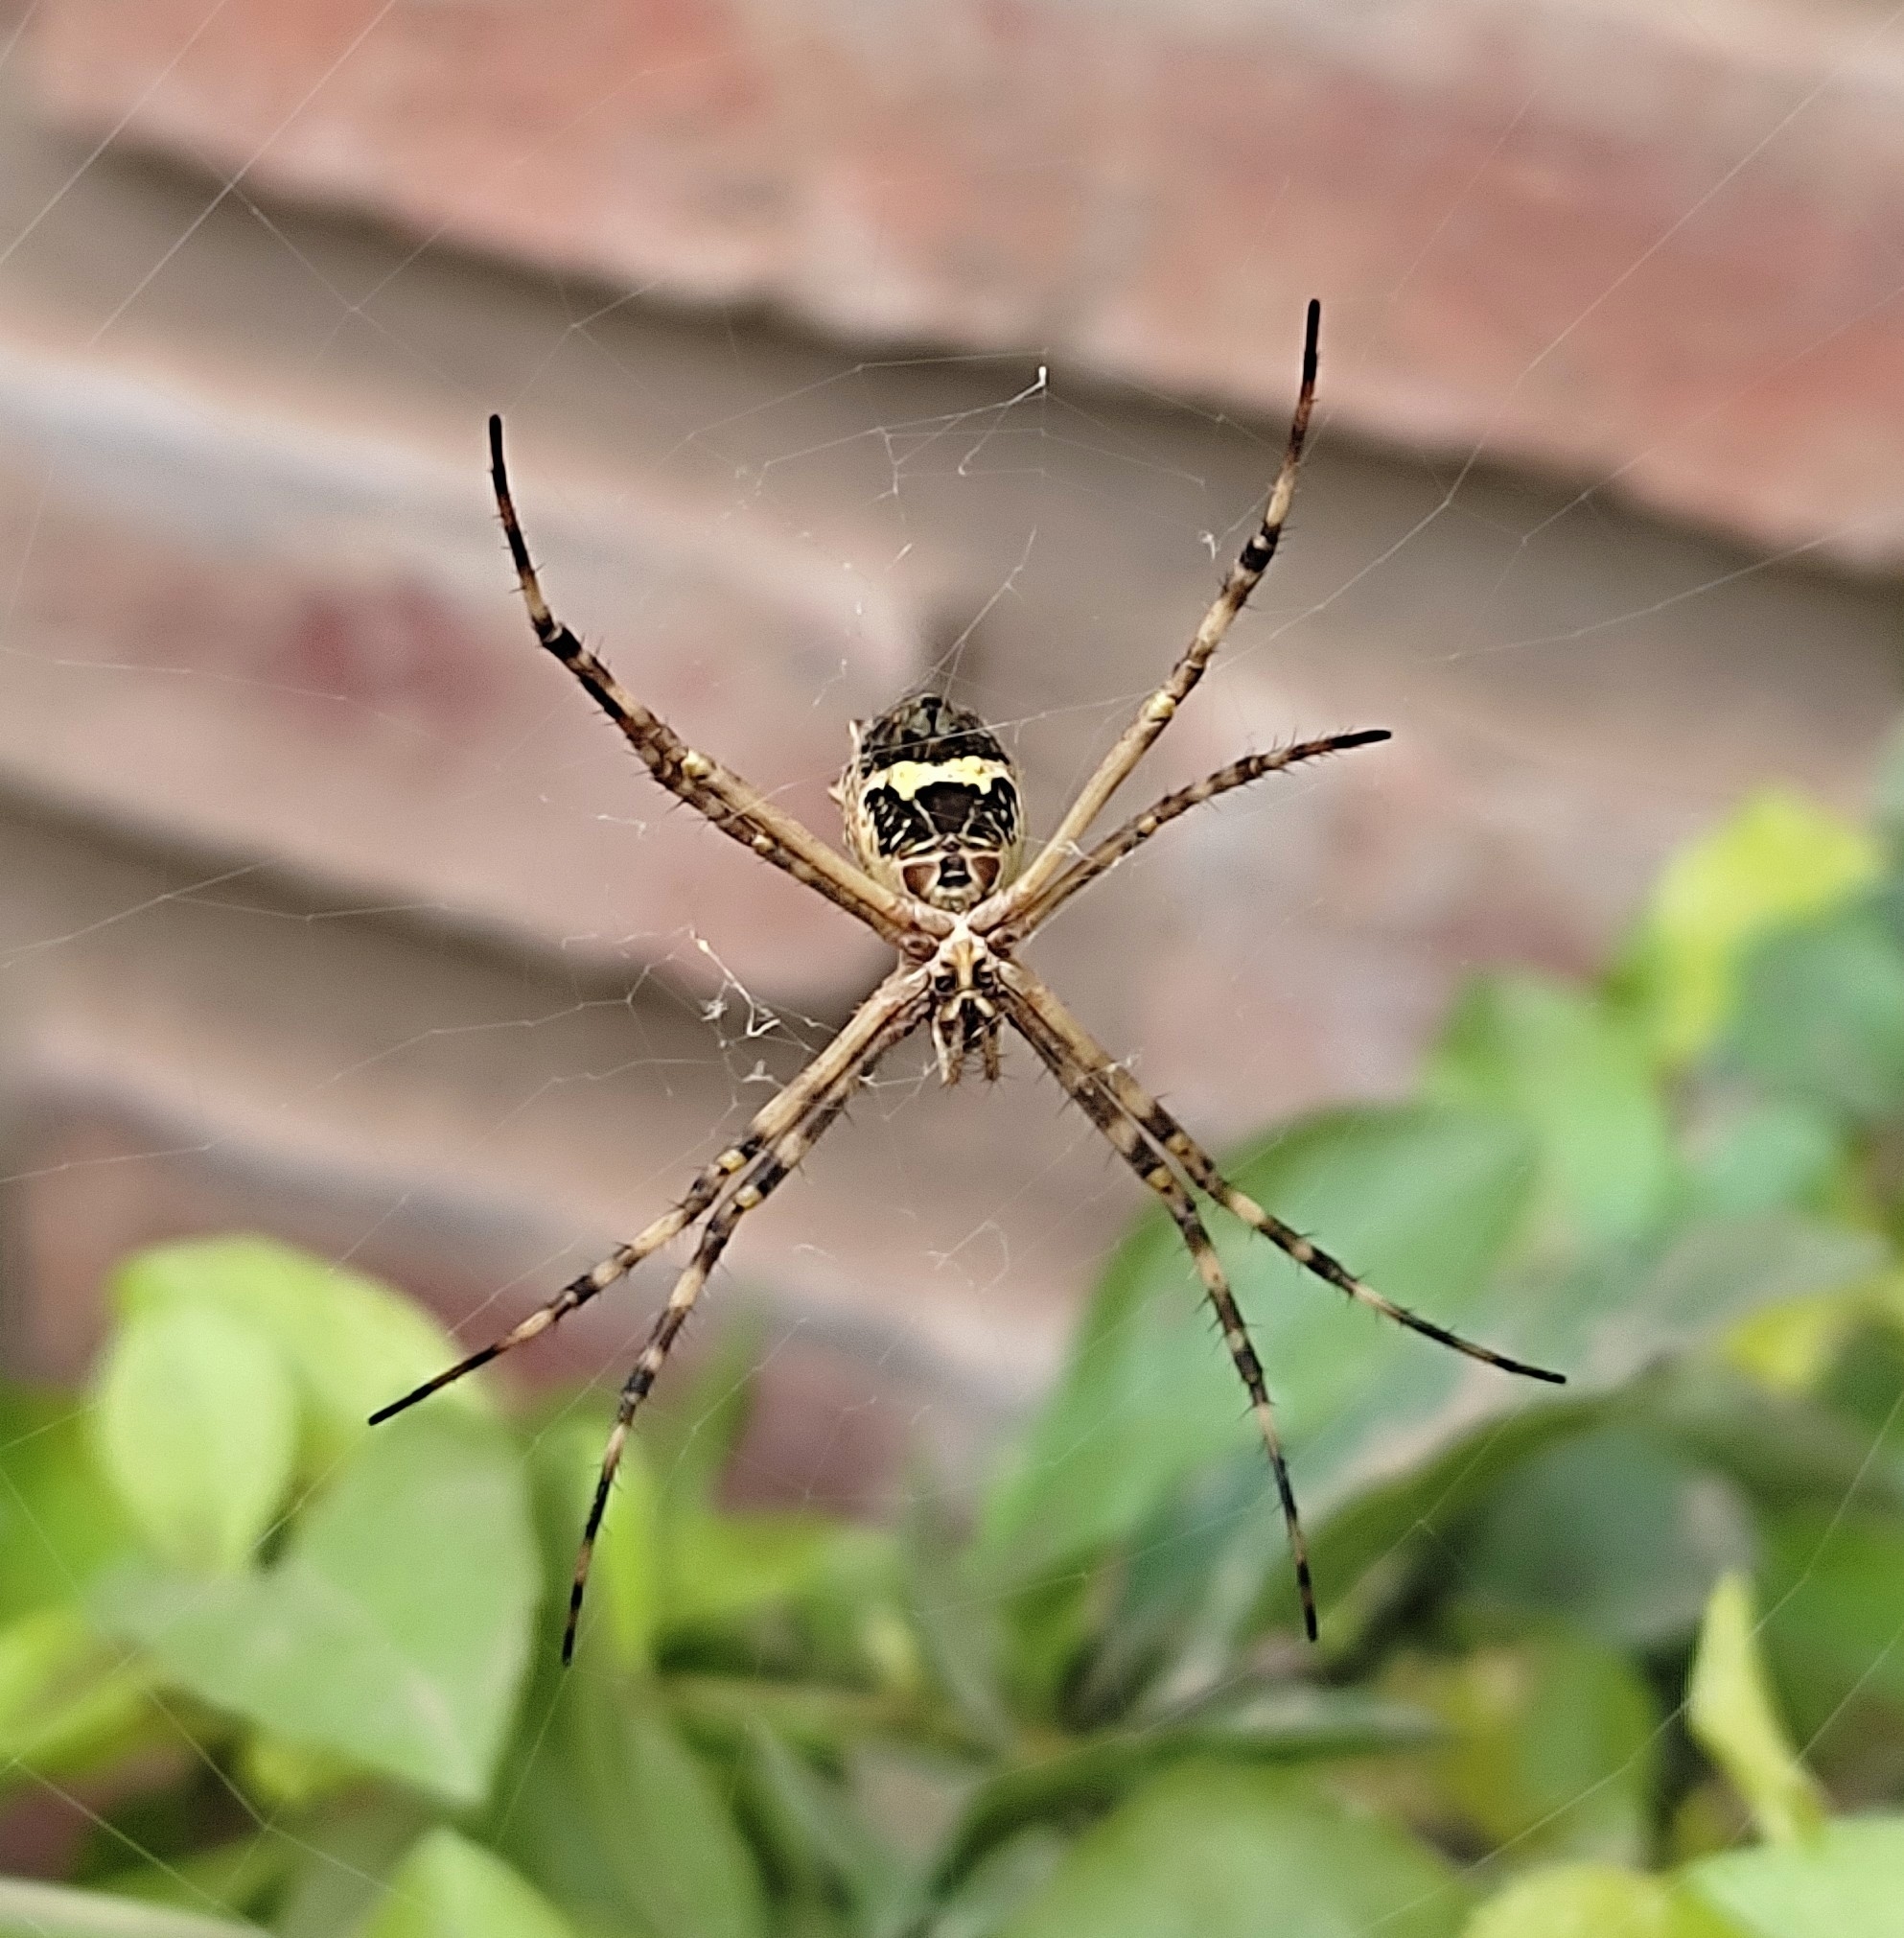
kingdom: Animalia
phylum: Arthropoda
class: Arachnida
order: Araneae
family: Araneidae
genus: Argiope
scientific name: Argiope argentata
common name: Orb weavers
